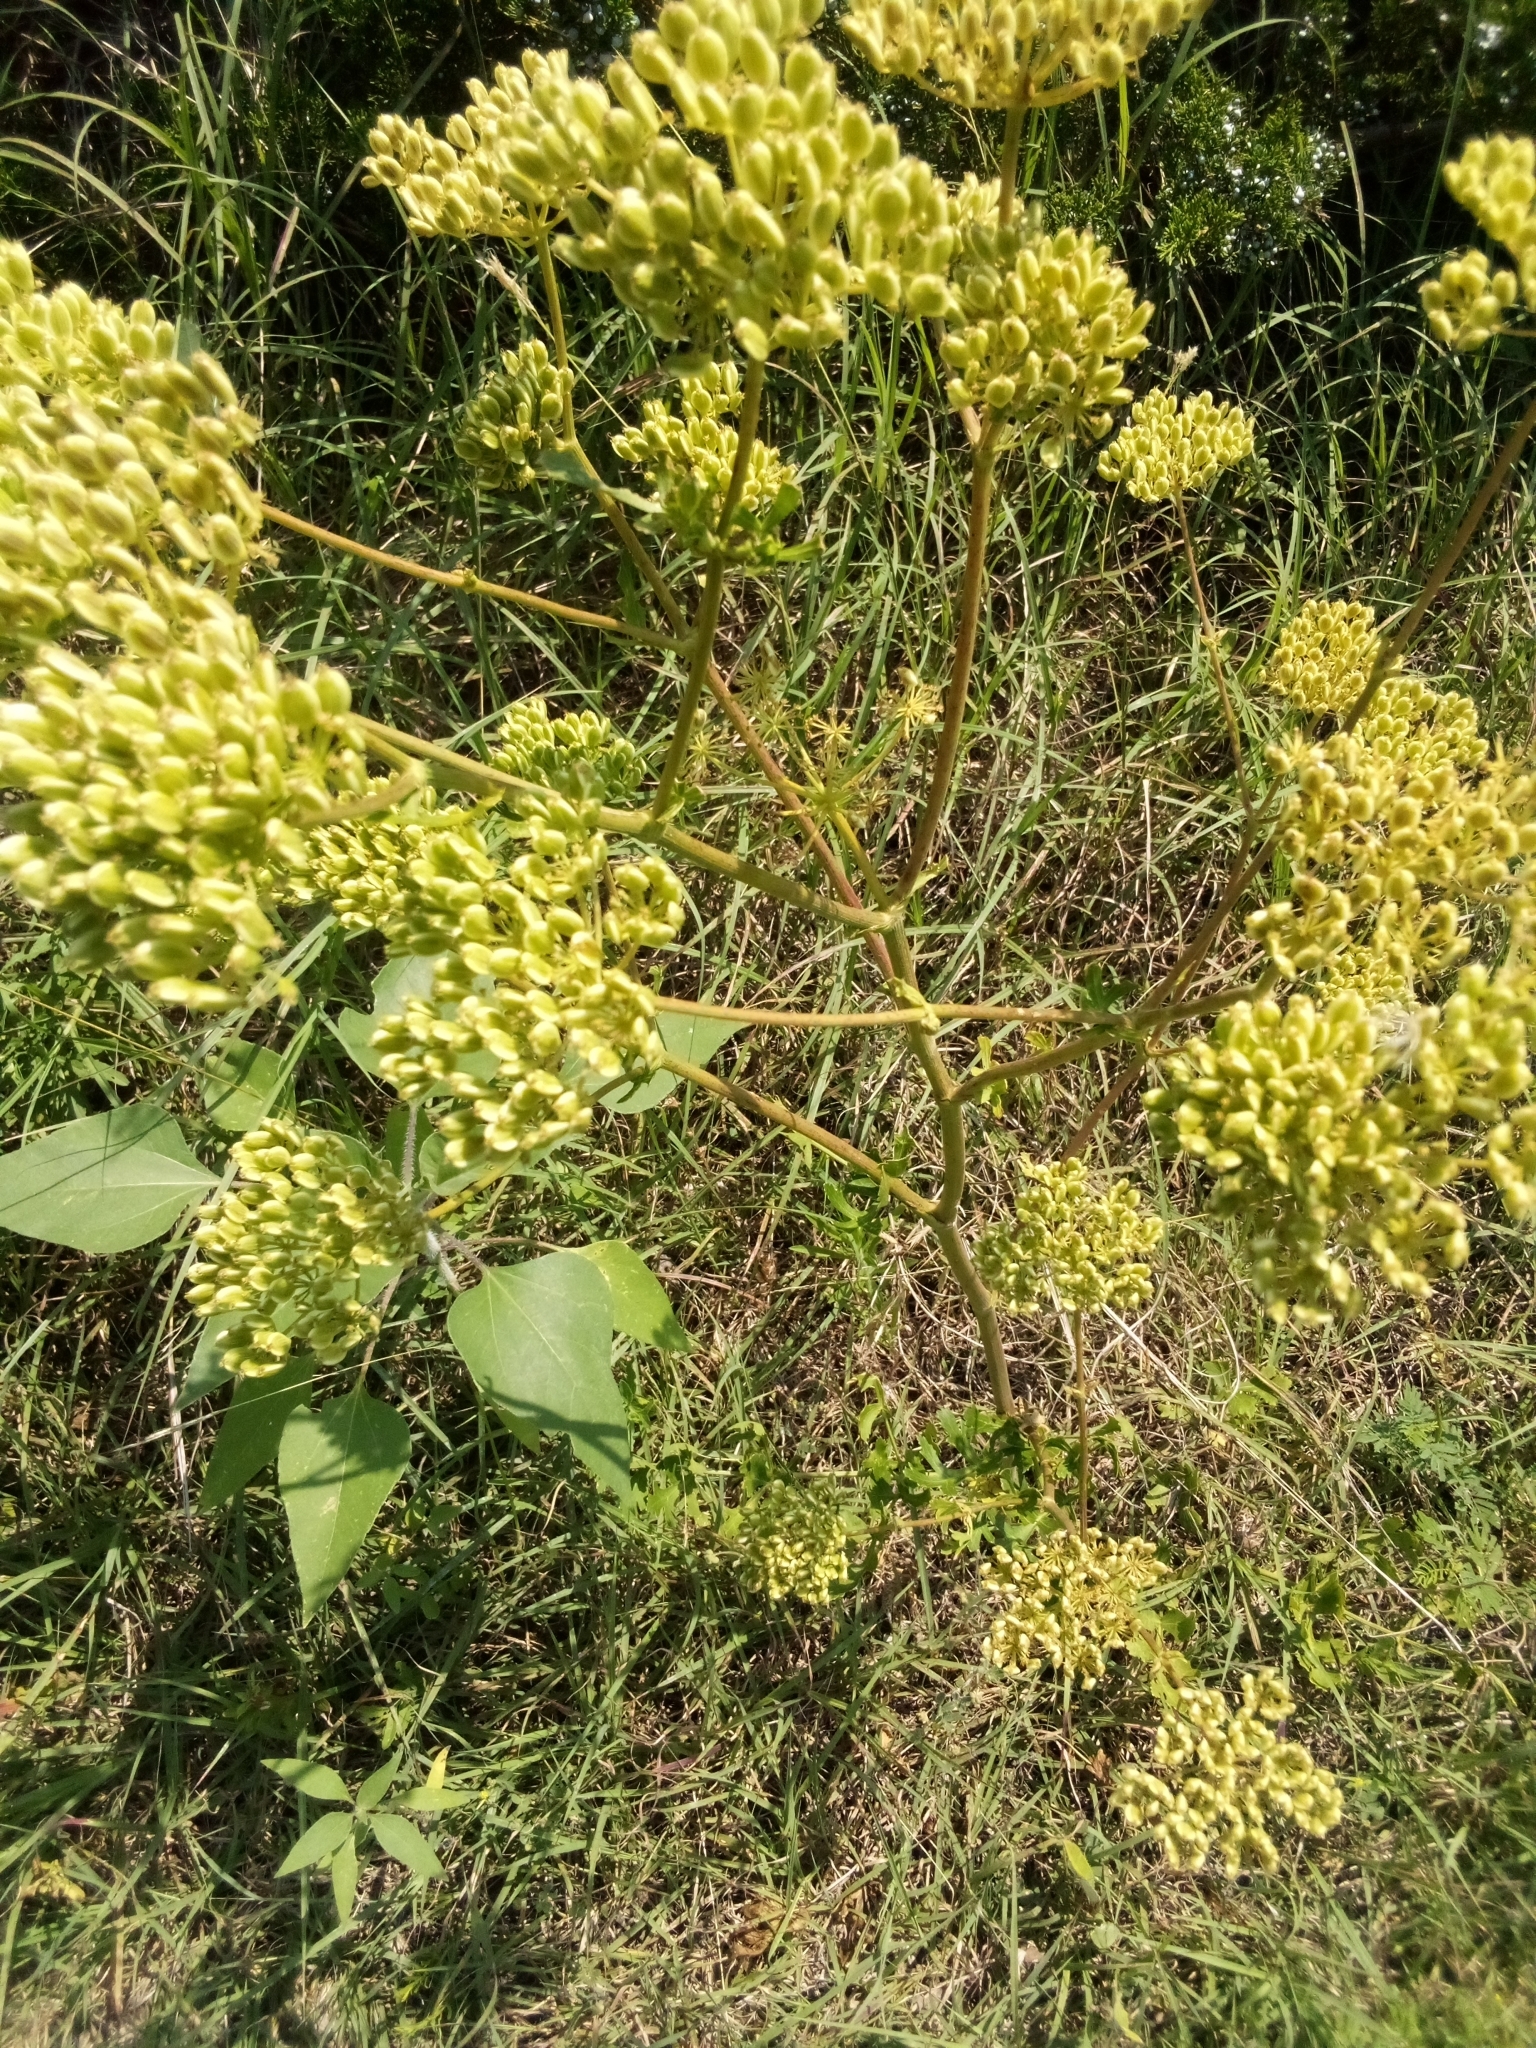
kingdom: Plantae
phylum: Tracheophyta
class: Magnoliopsida
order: Apiales
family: Apiaceae
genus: Polytaenia
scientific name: Polytaenia texana
